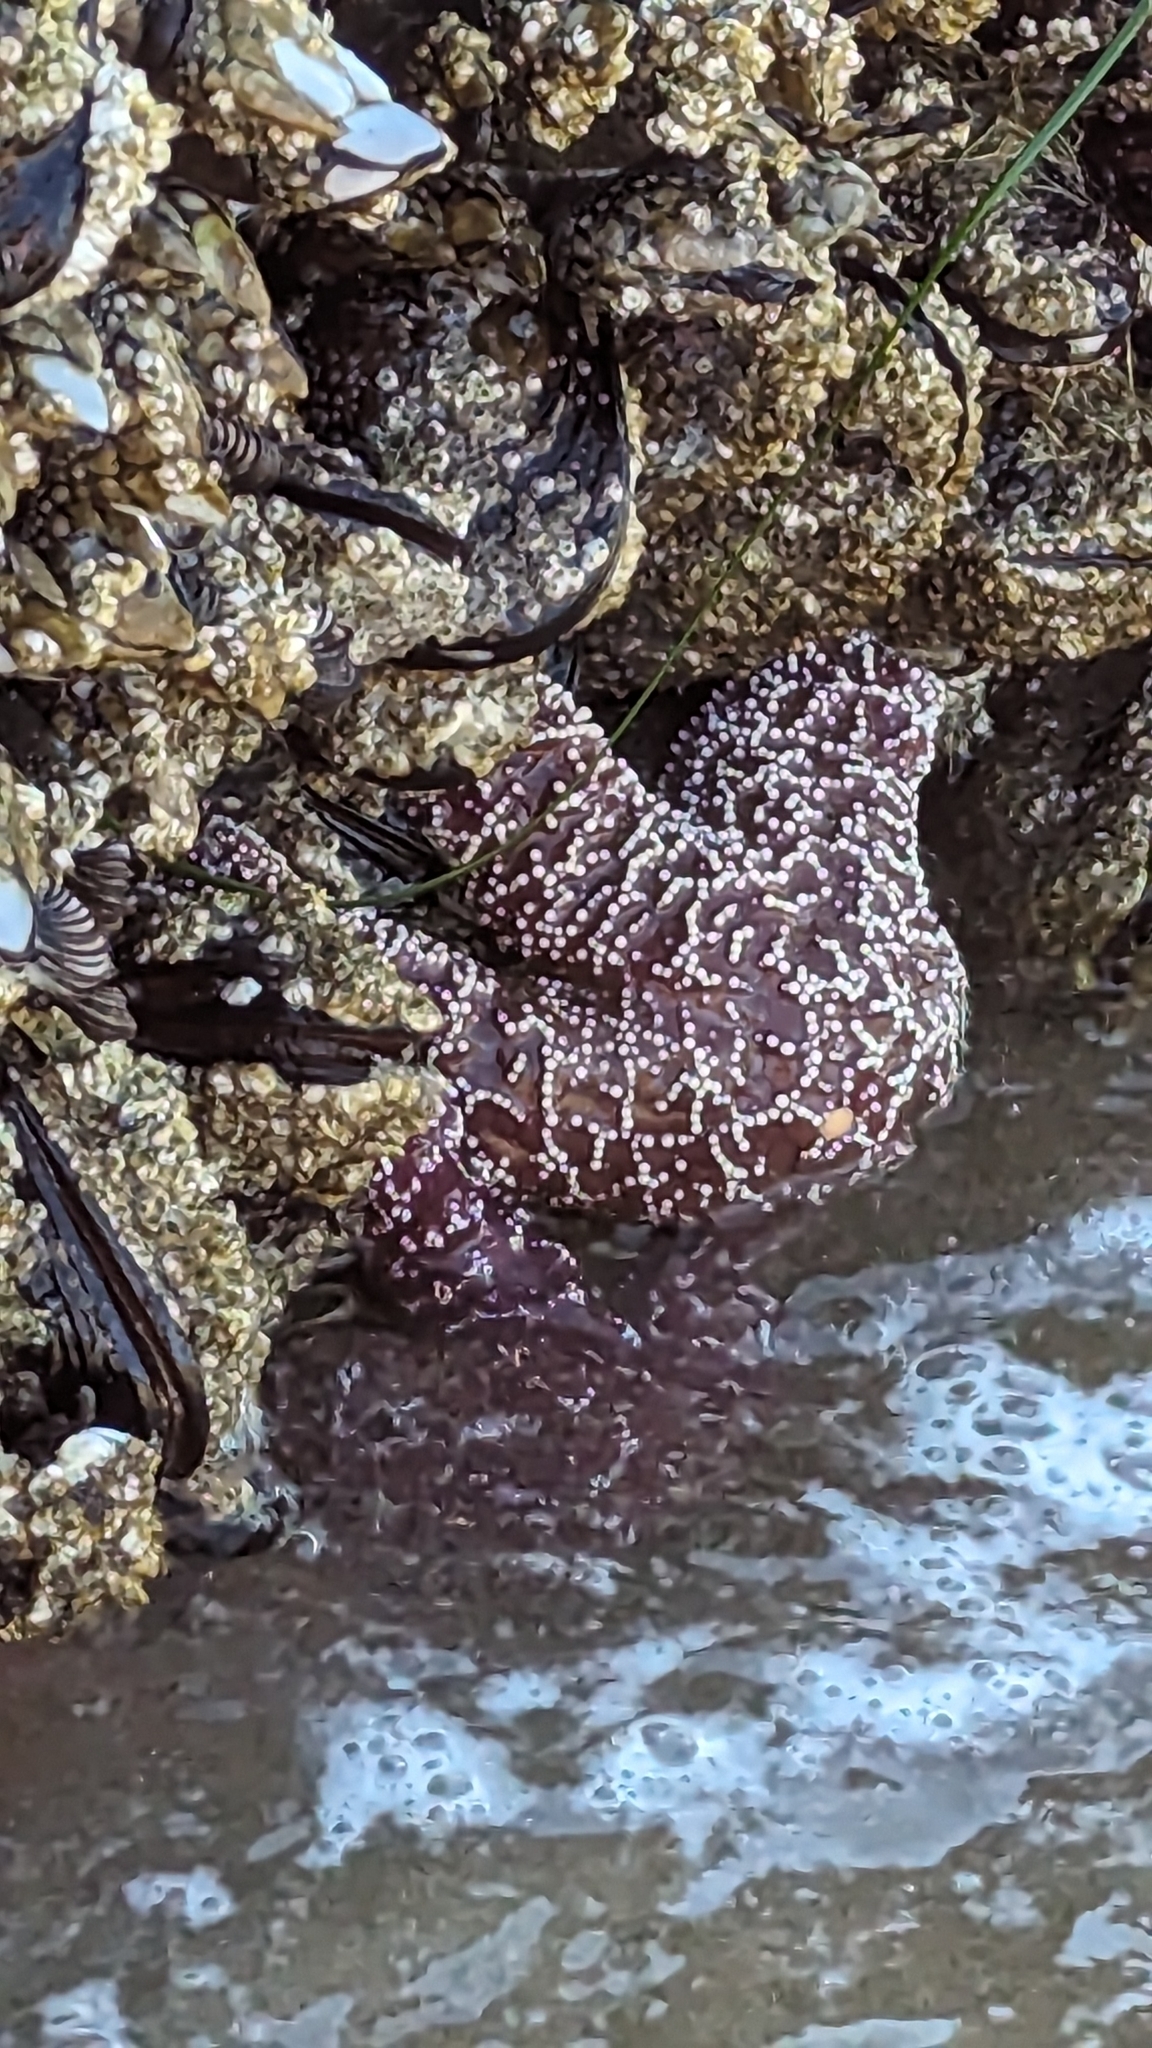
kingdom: Animalia
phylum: Echinodermata
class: Asteroidea
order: Forcipulatida
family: Asteriidae
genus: Pisaster
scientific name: Pisaster ochraceus
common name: Ochre stars
